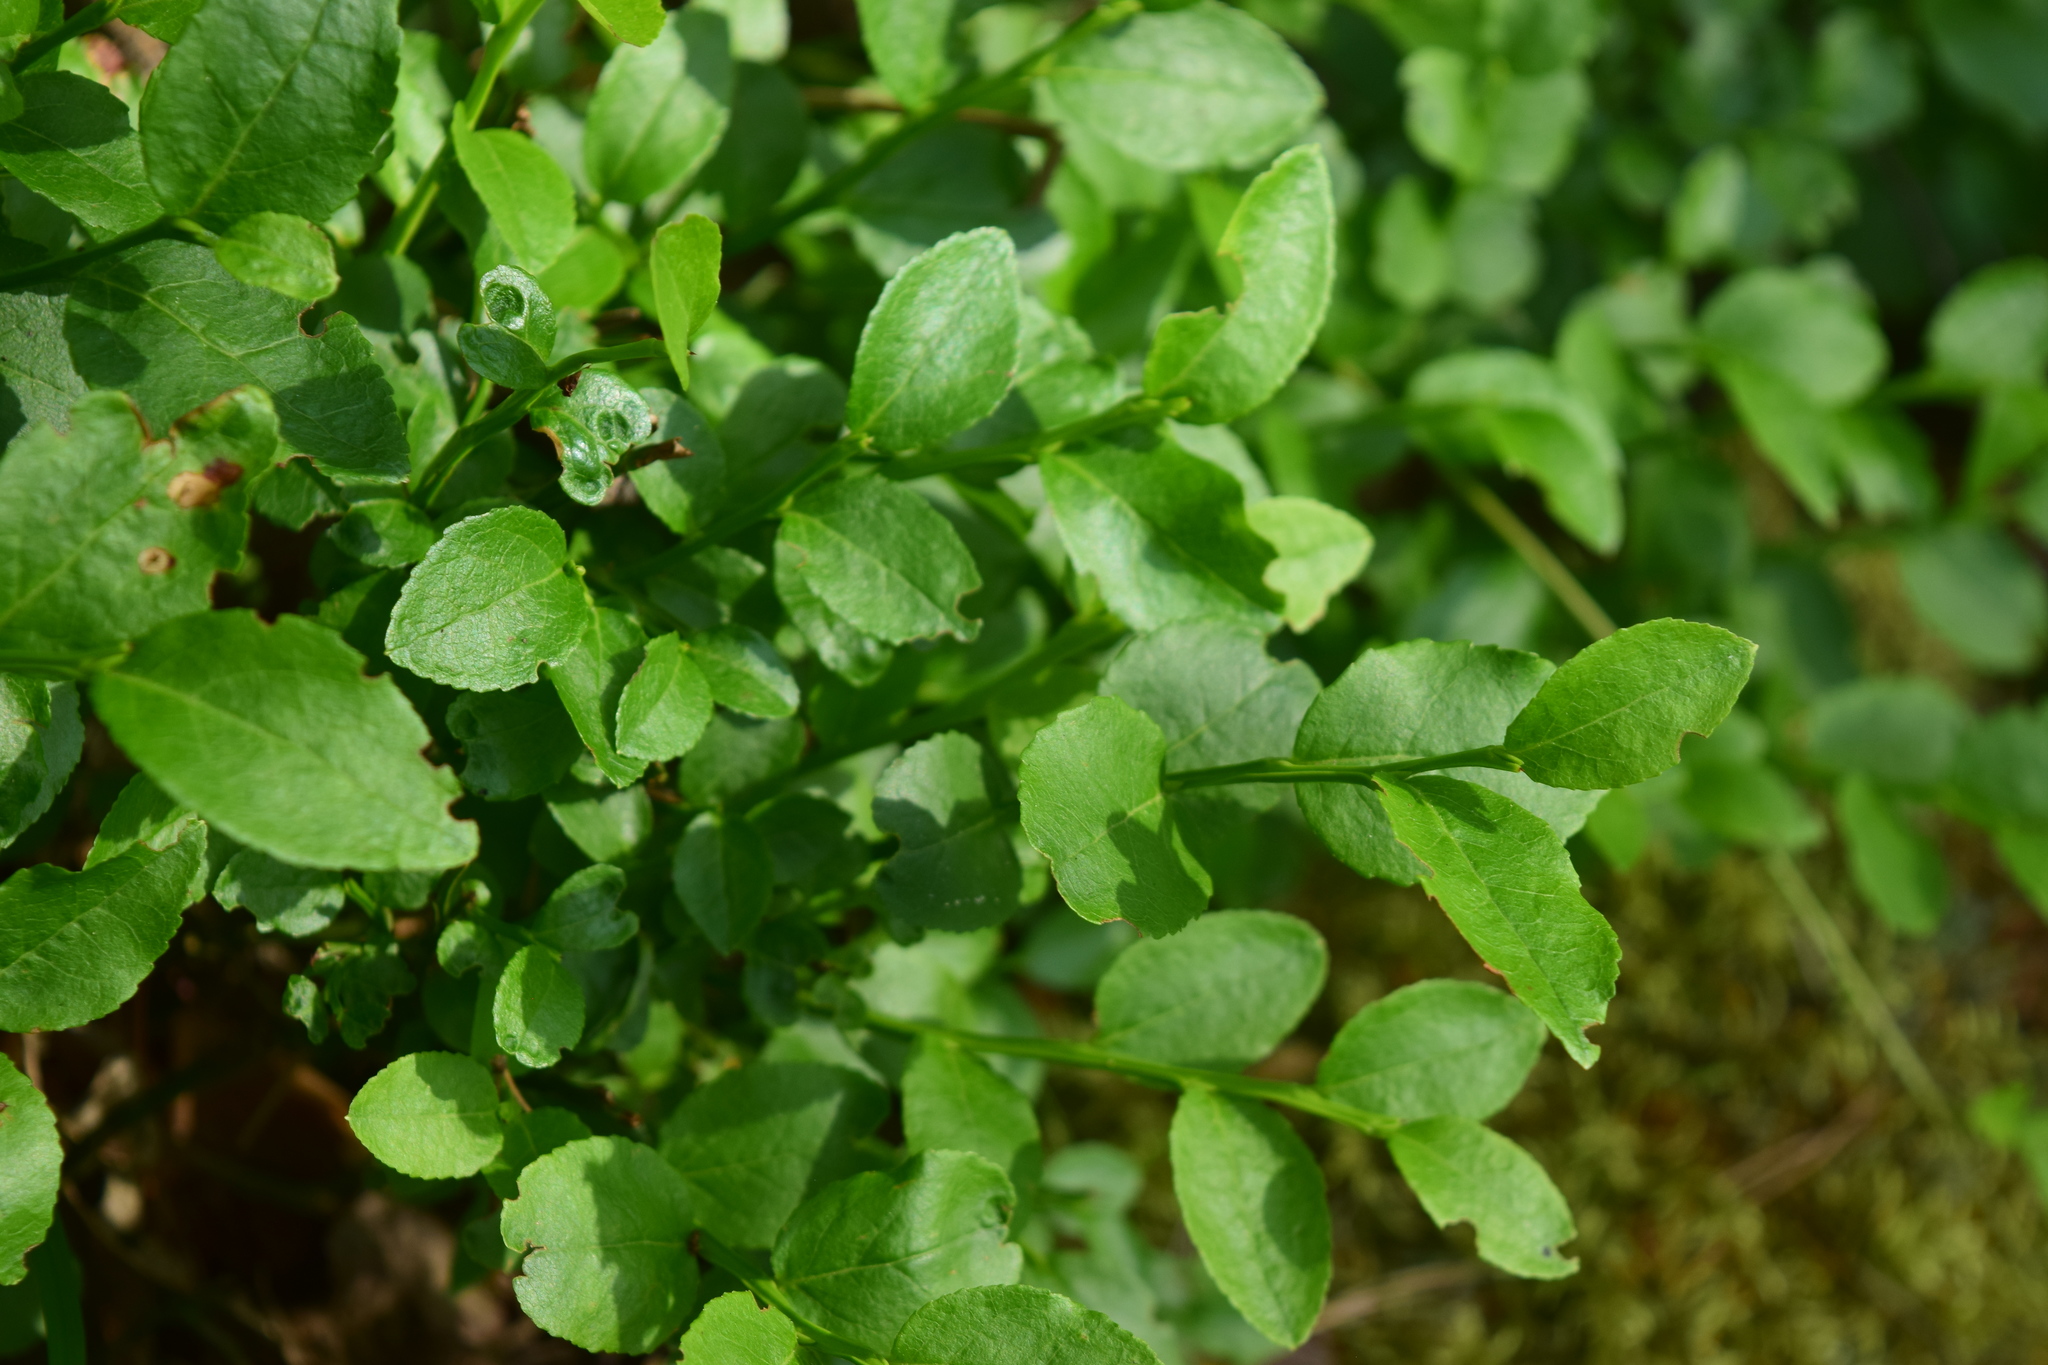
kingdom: Plantae
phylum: Tracheophyta
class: Magnoliopsida
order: Ericales
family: Ericaceae
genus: Vaccinium
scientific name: Vaccinium myrtillus
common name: Bilberry
